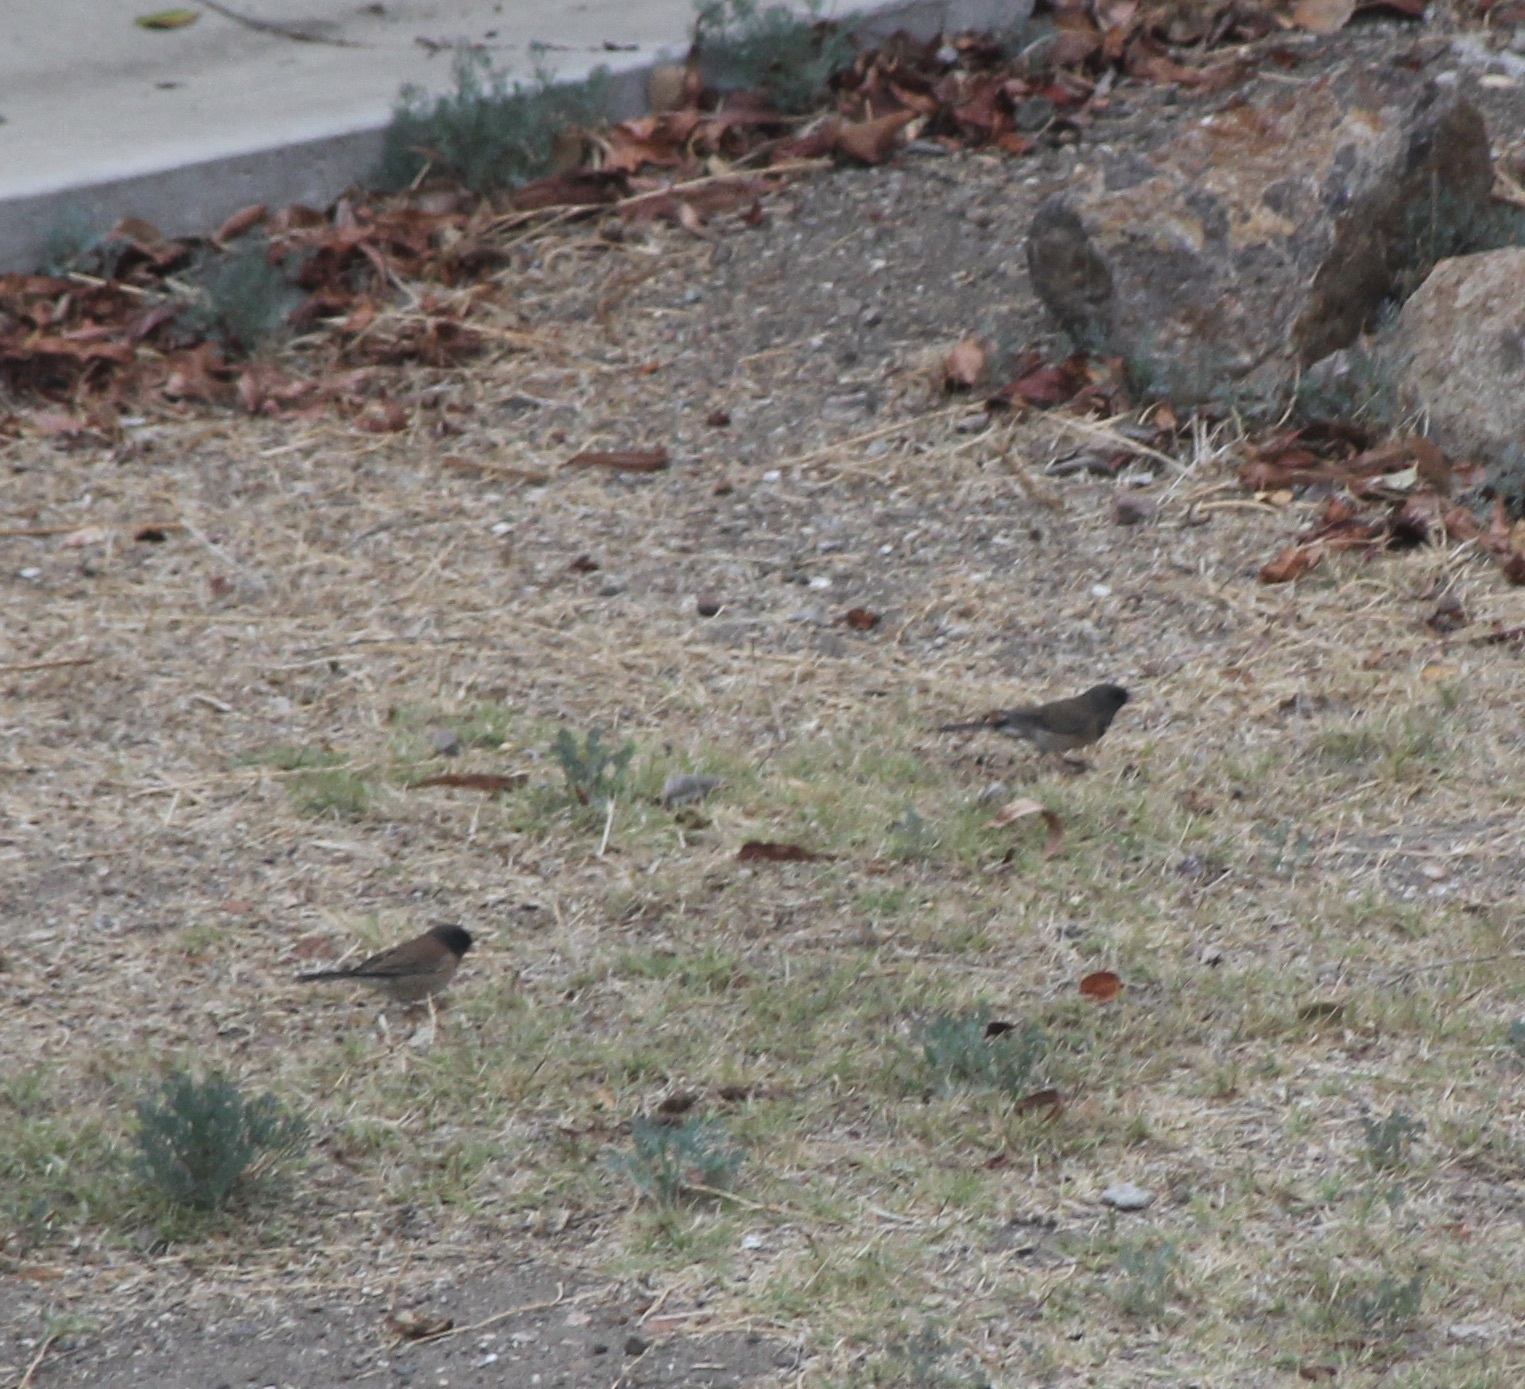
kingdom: Animalia
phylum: Chordata
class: Aves
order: Passeriformes
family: Passerellidae
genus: Junco
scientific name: Junco hyemalis
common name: Dark-eyed junco
